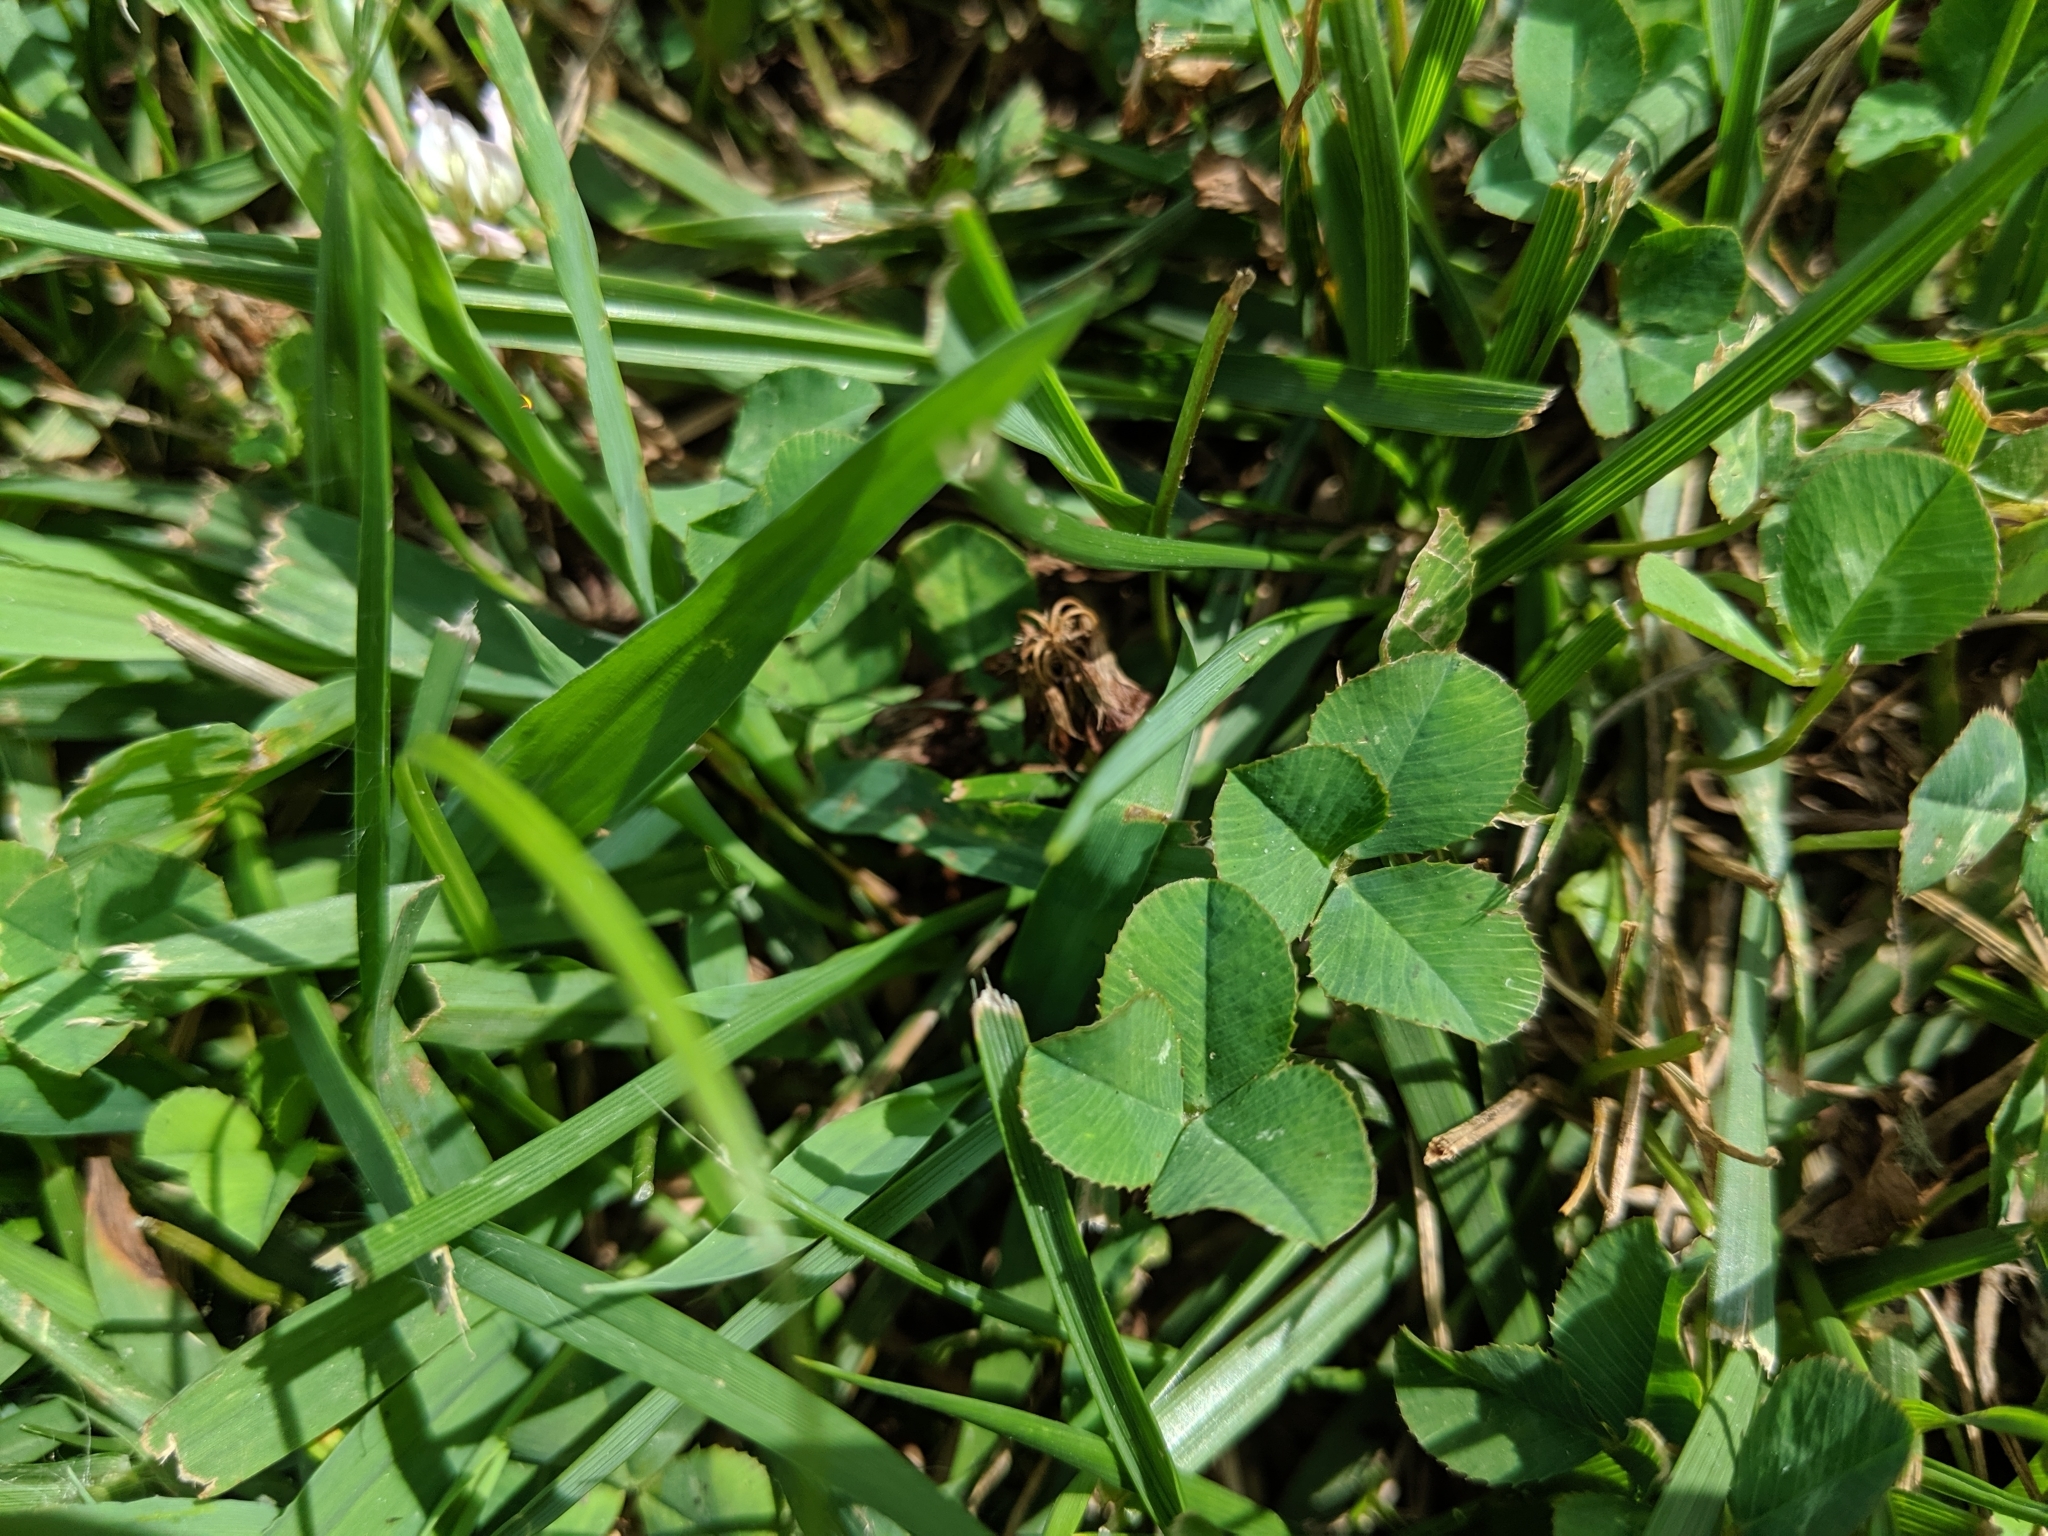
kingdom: Plantae
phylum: Tracheophyta
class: Magnoliopsida
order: Fabales
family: Fabaceae
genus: Trifolium
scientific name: Trifolium repens
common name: White clover
